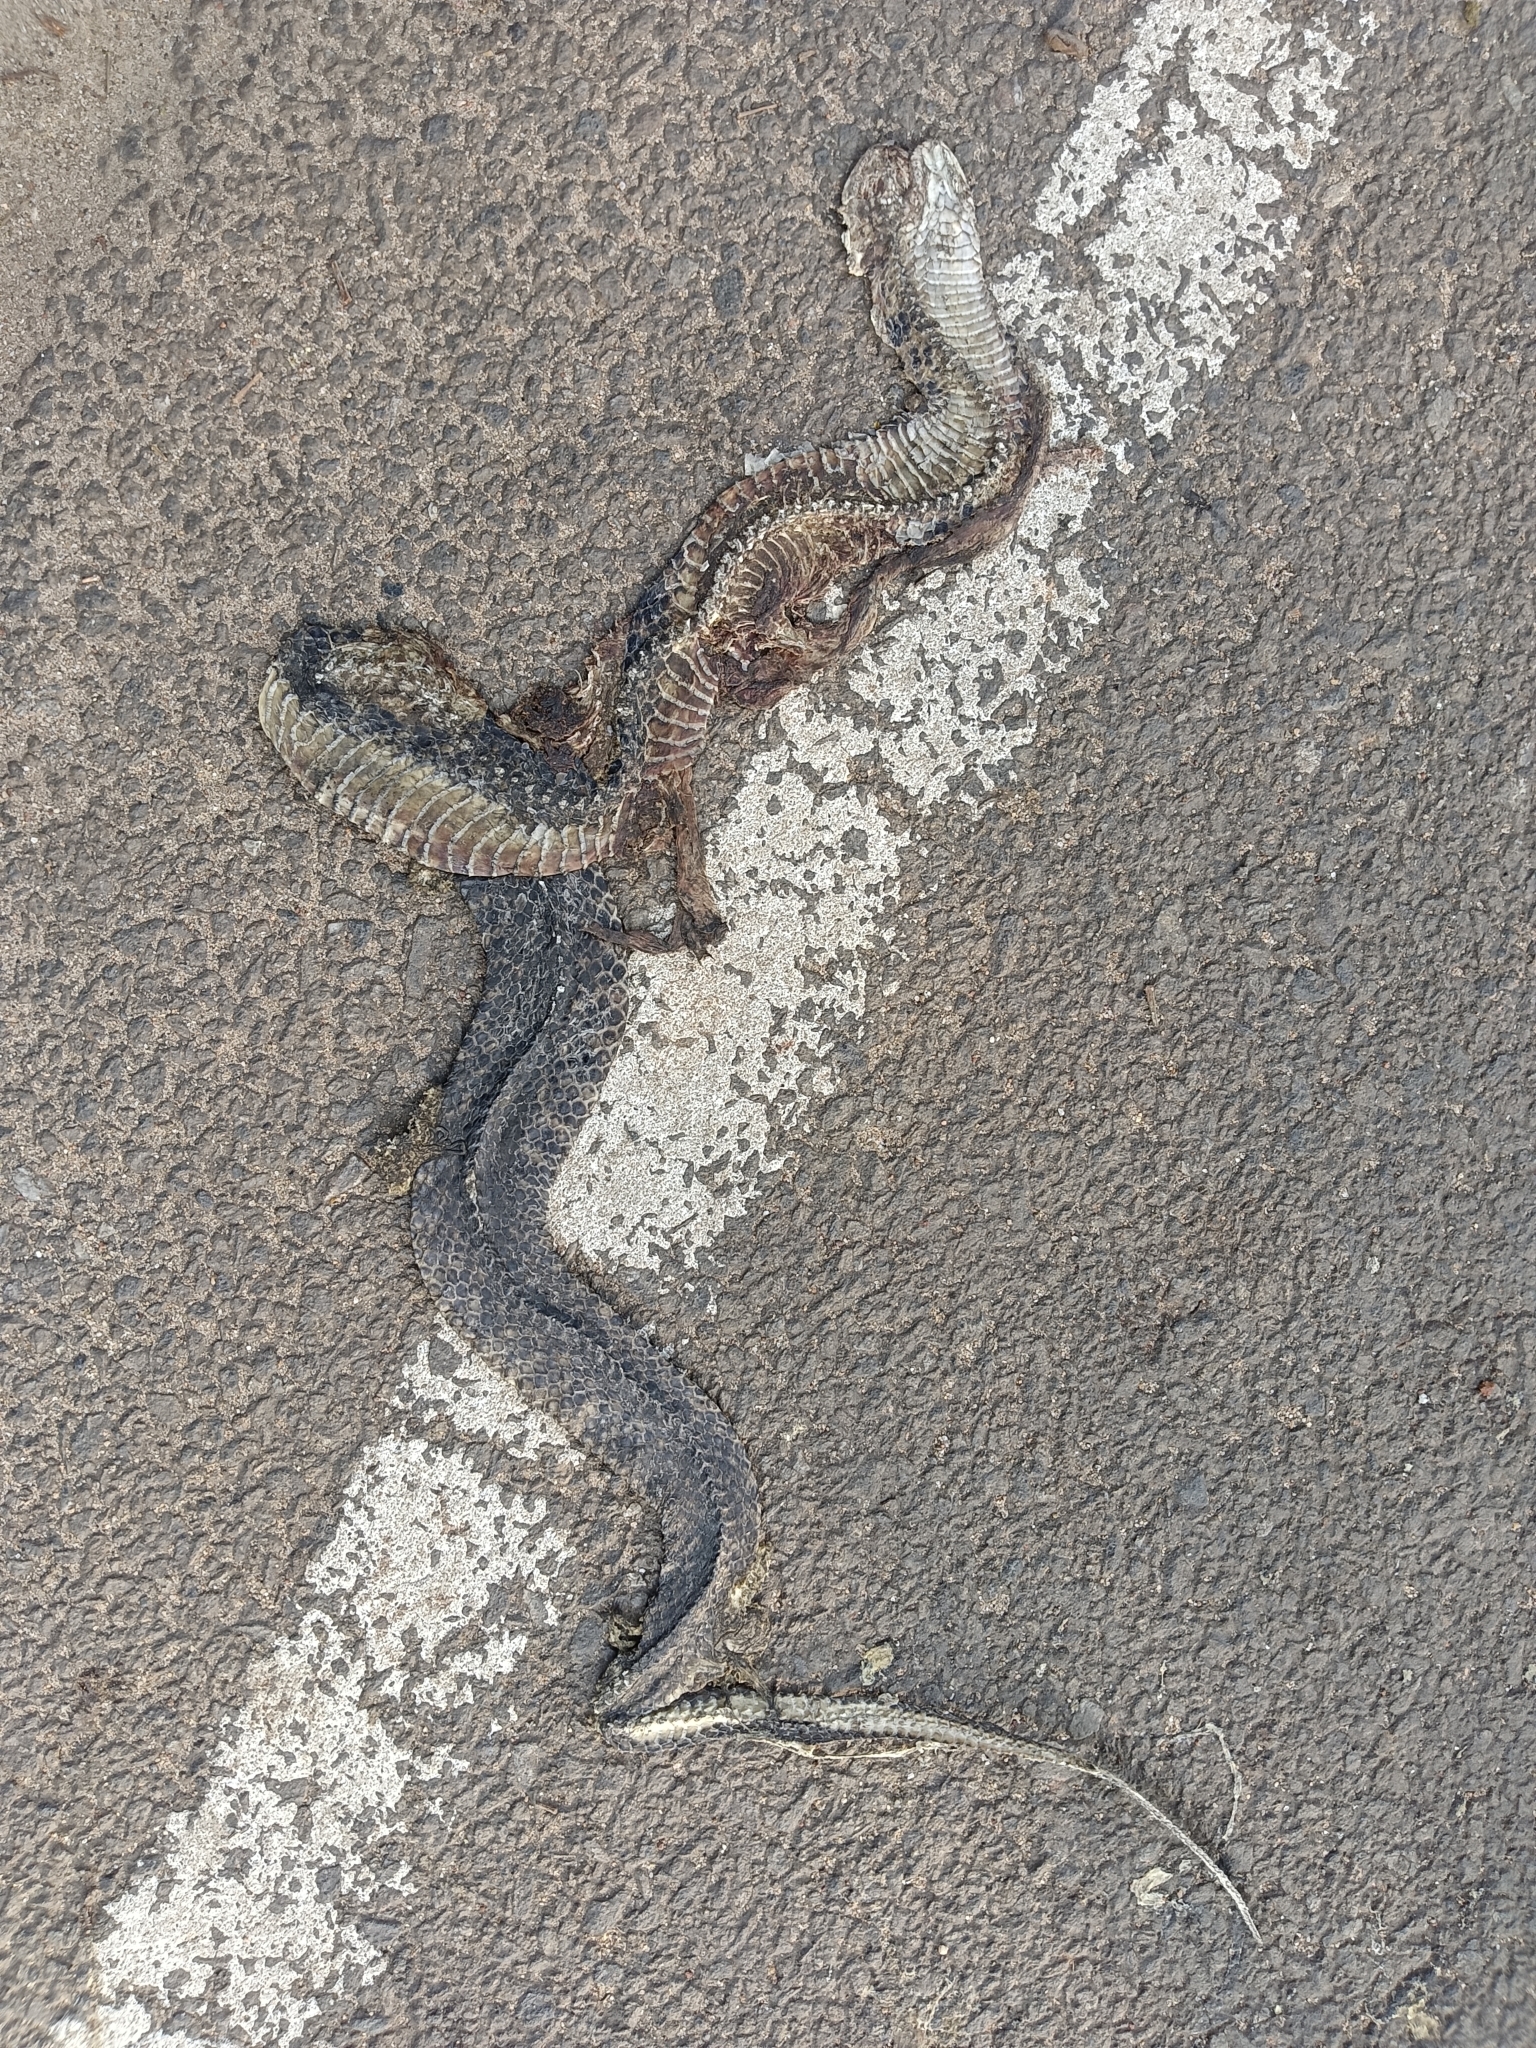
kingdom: Animalia
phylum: Chordata
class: Squamata
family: Colubridae
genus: Fowlea
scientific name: Fowlea piscator
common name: Asiatic water snake
